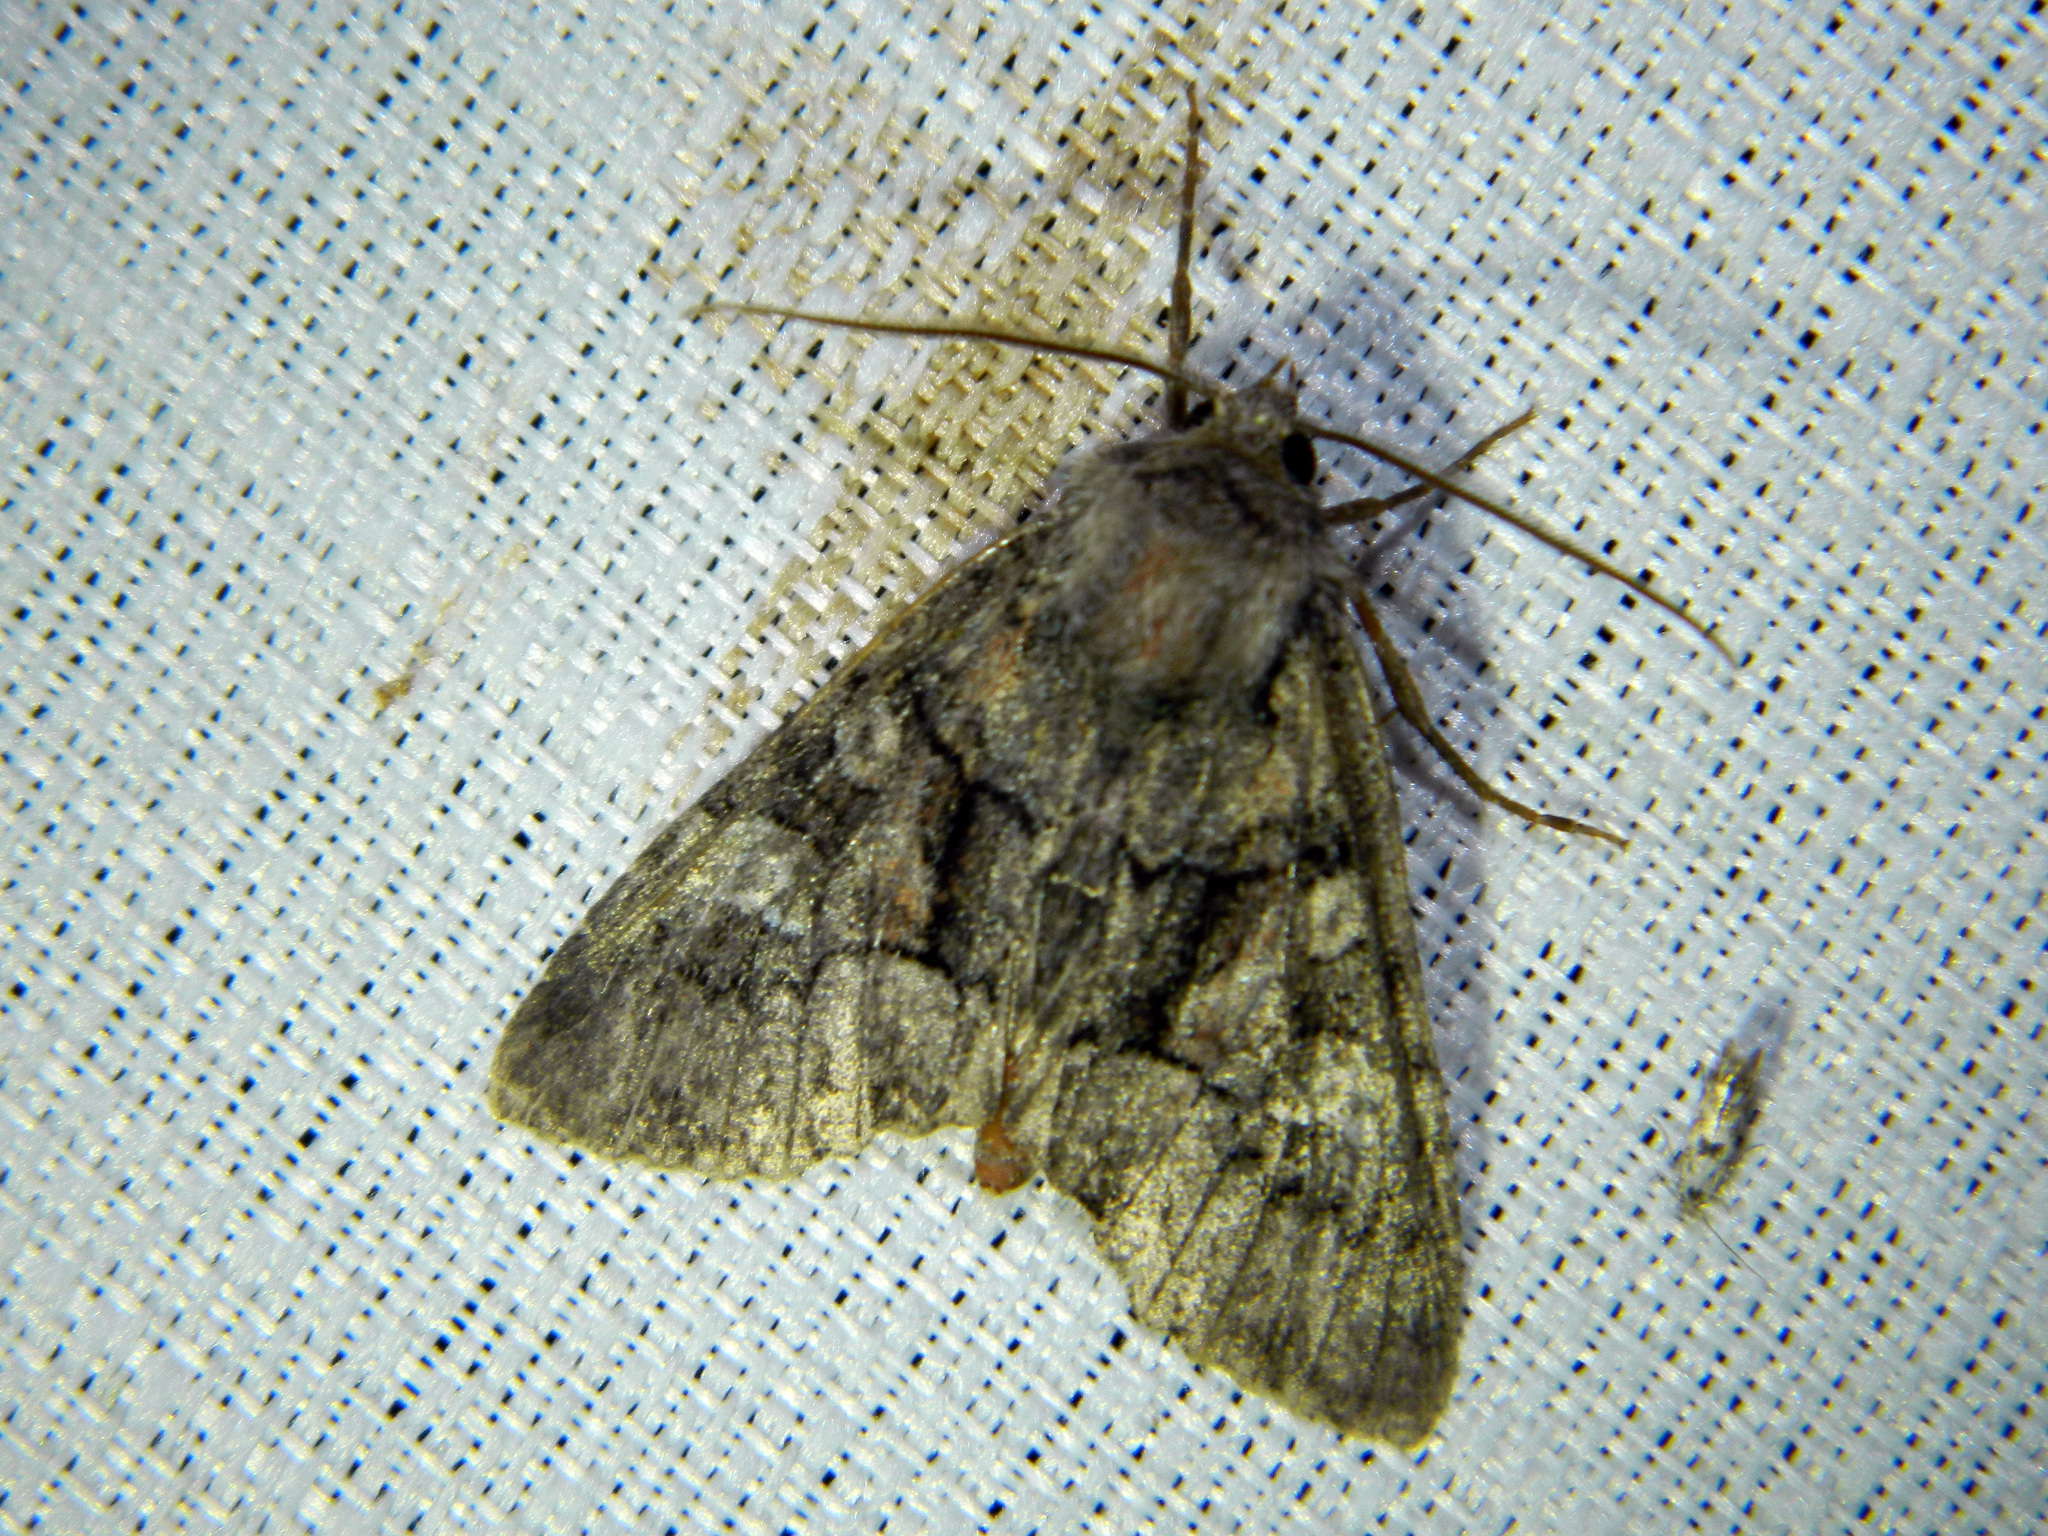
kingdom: Animalia
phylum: Arthropoda
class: Insecta
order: Lepidoptera
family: Noctuidae
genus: Fishia
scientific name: Fishia illocata
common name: Wandering brocade moth
